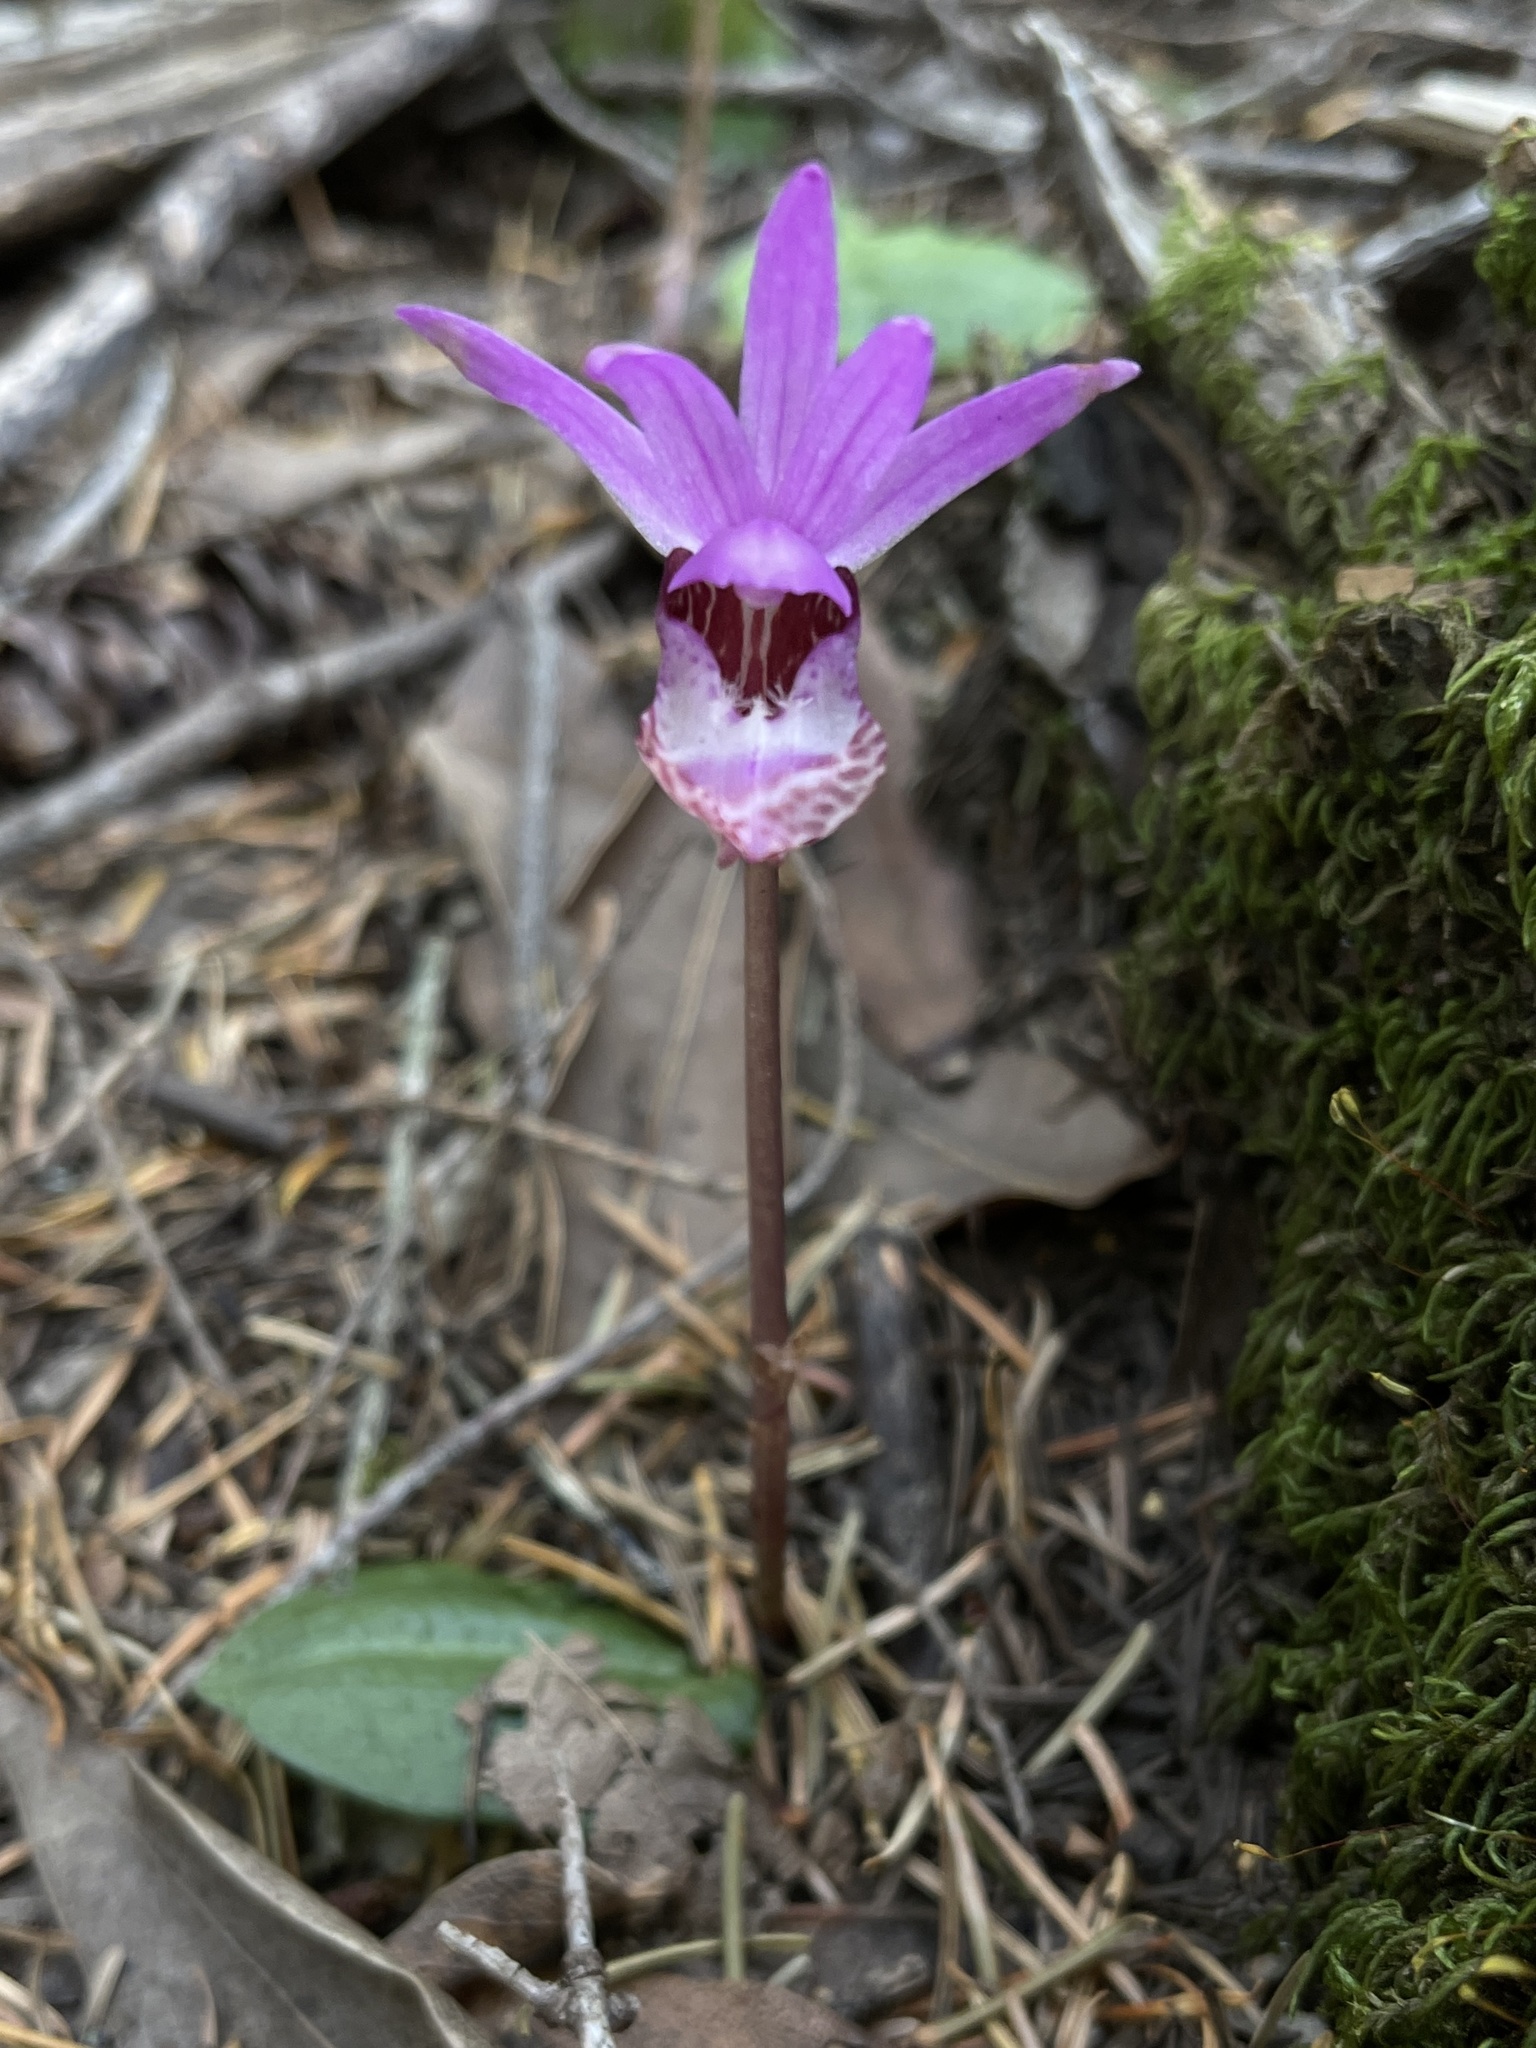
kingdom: Plantae
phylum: Tracheophyta
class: Liliopsida
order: Asparagales
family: Orchidaceae
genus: Calypso
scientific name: Calypso bulbosa
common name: Calypso
